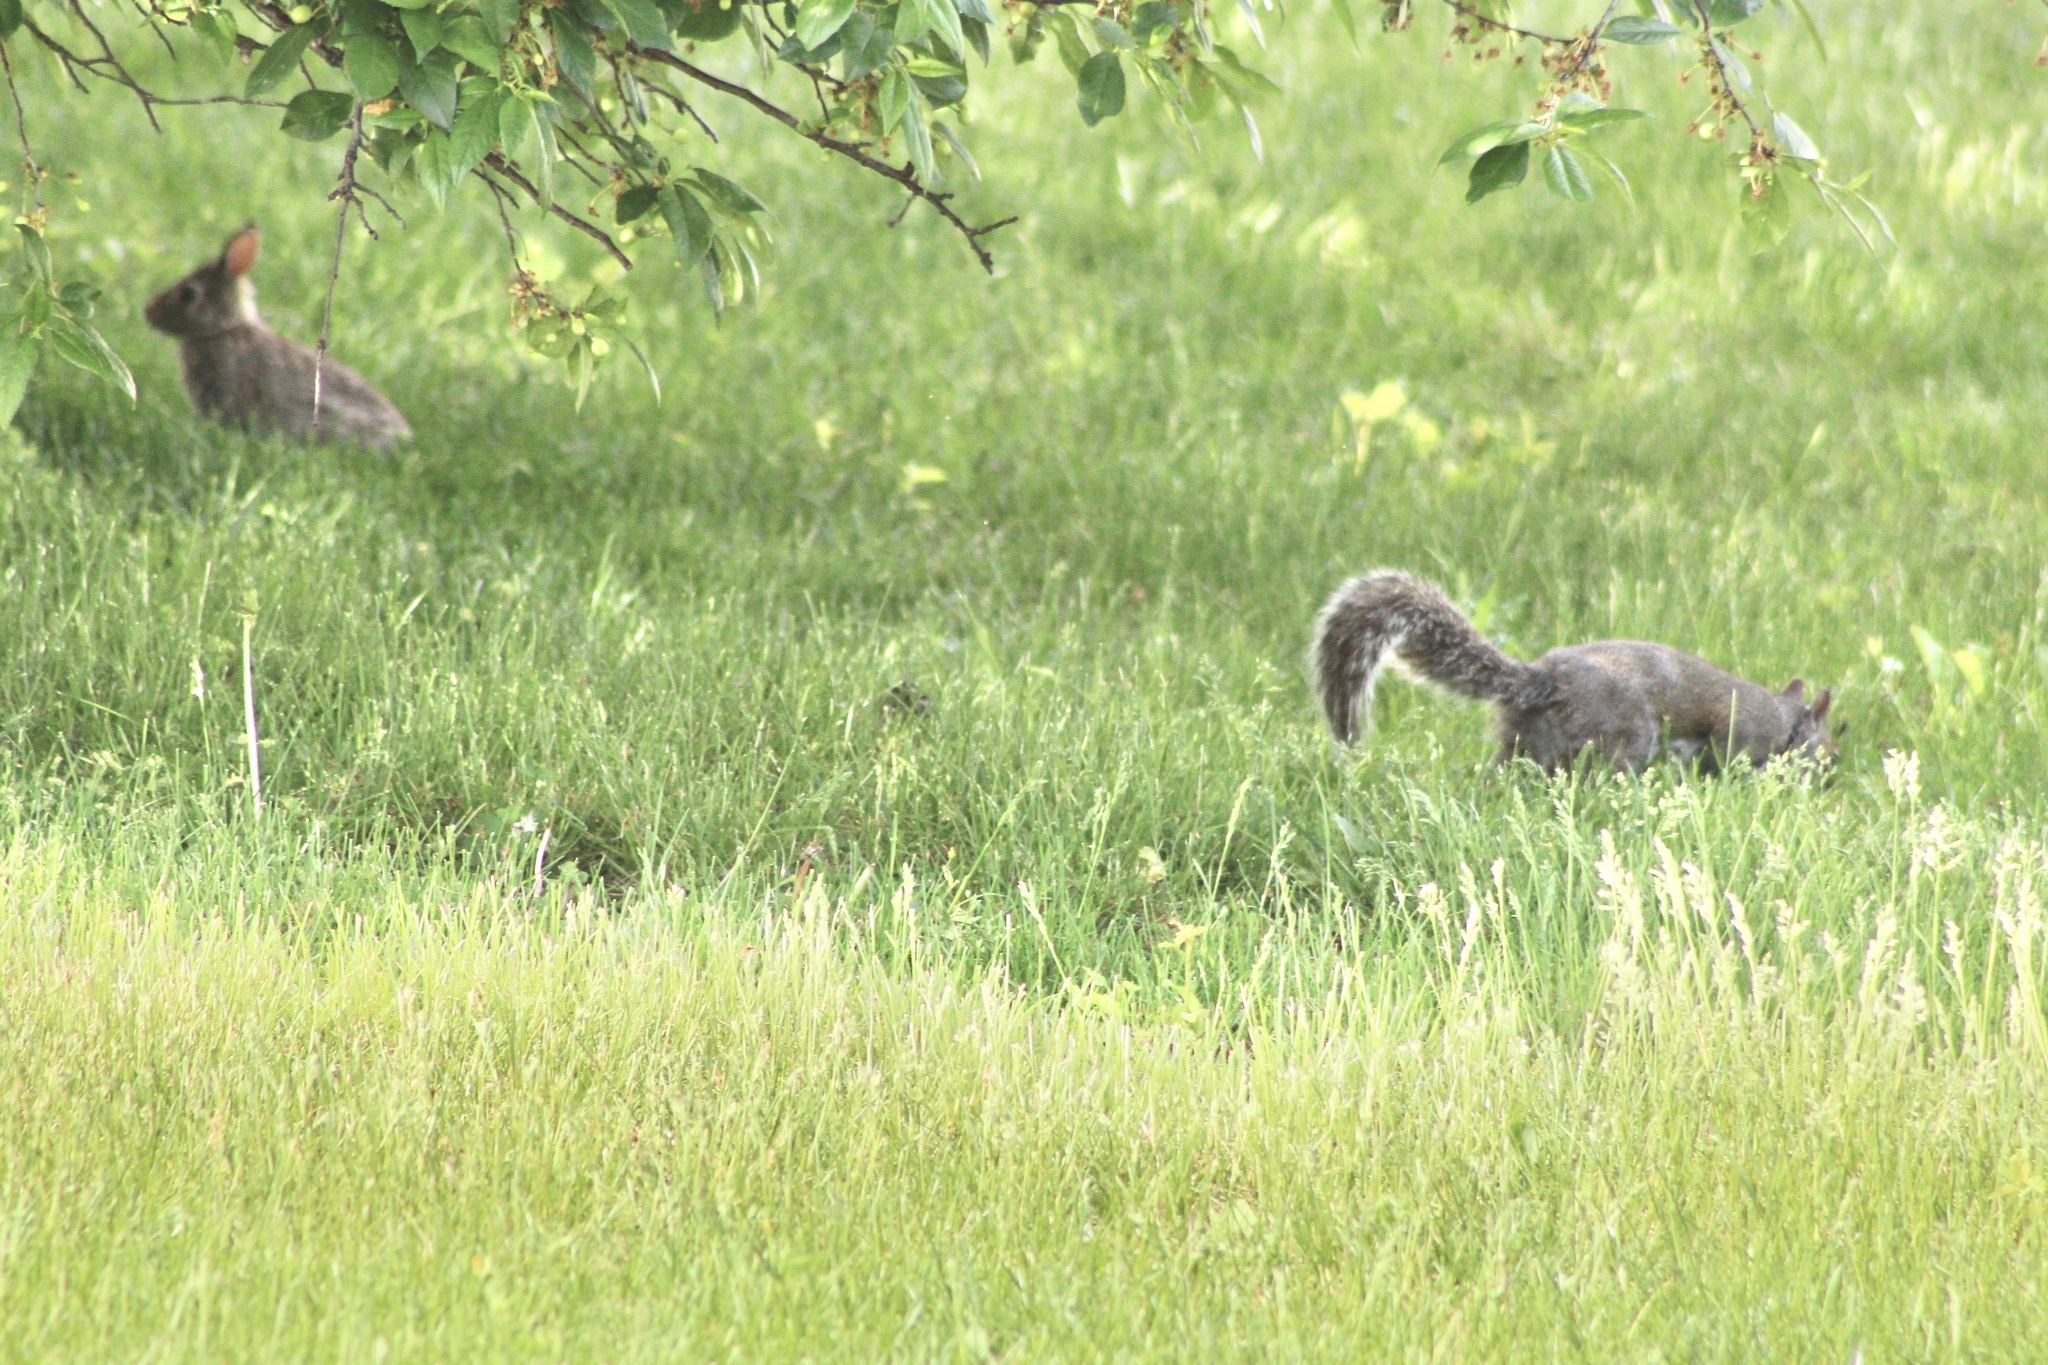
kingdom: Animalia
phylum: Chordata
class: Mammalia
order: Rodentia
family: Sciuridae
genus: Sciurus
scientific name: Sciurus carolinensis
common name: Eastern gray squirrel
